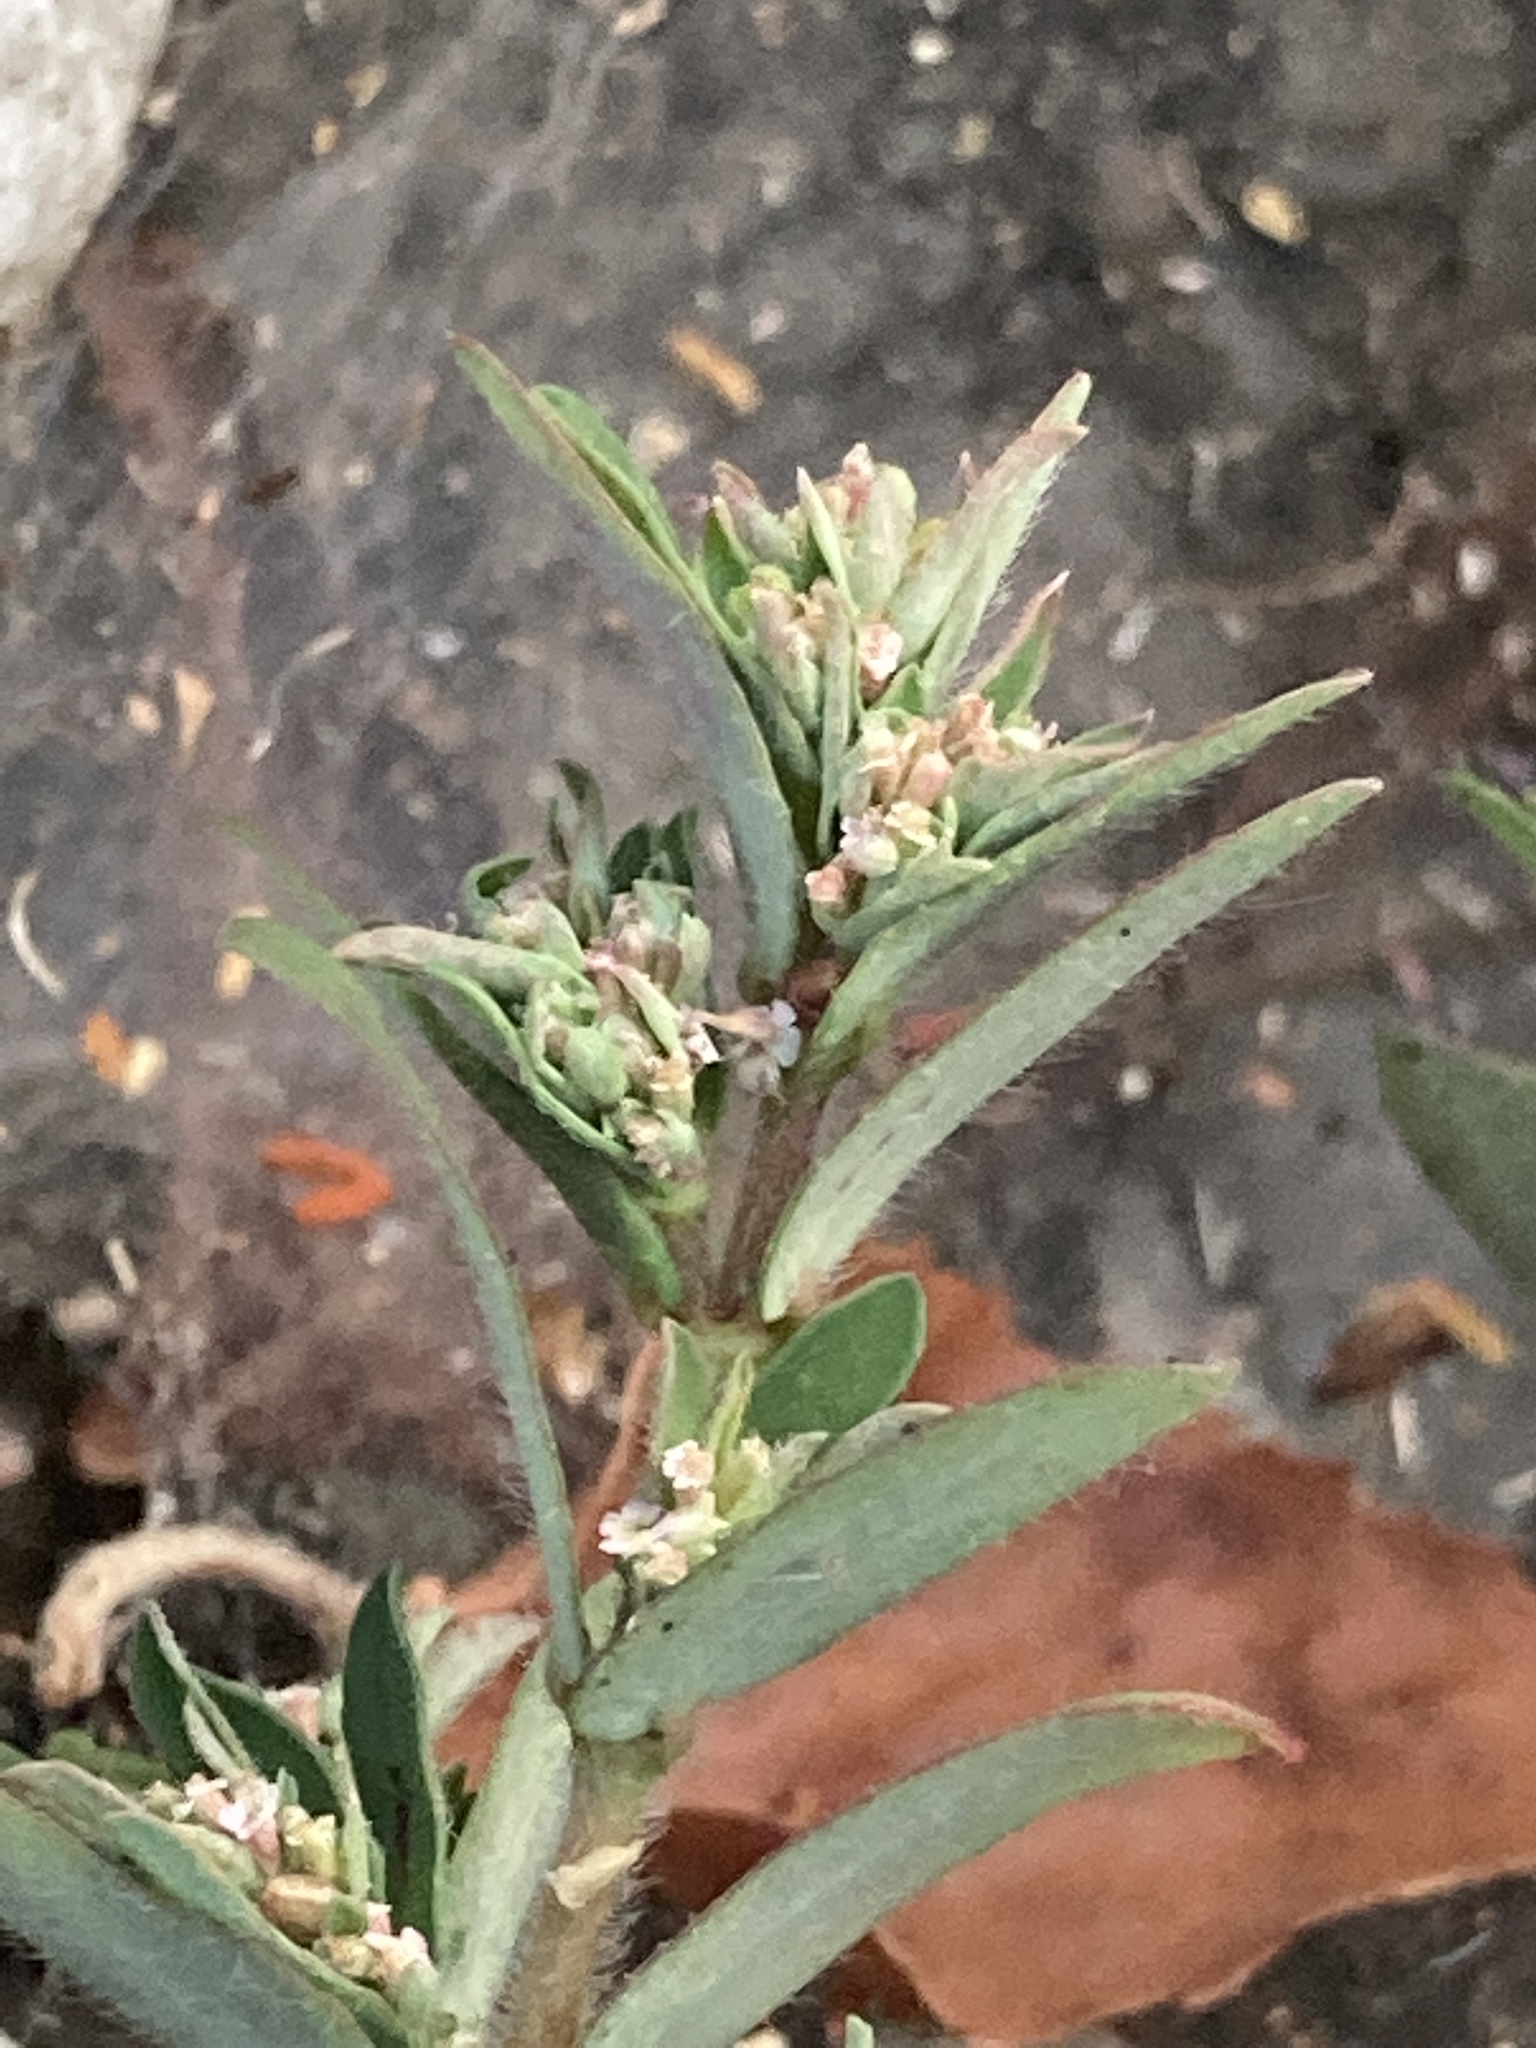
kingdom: Plantae
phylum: Tracheophyta
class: Magnoliopsida
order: Malpighiales
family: Euphorbiaceae
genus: Euphorbia
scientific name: Euphorbia maculata
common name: Spotted spurge
